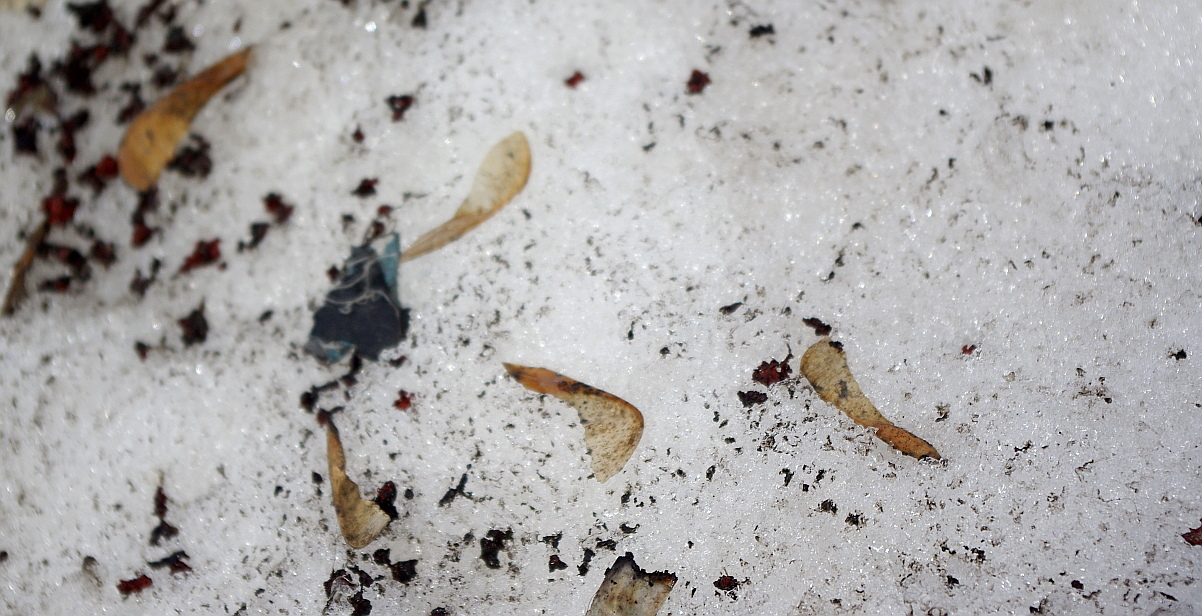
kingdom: Plantae
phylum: Tracheophyta
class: Magnoliopsida
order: Sapindales
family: Sapindaceae
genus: Acer
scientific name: Acer negundo
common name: Ashleaf maple
